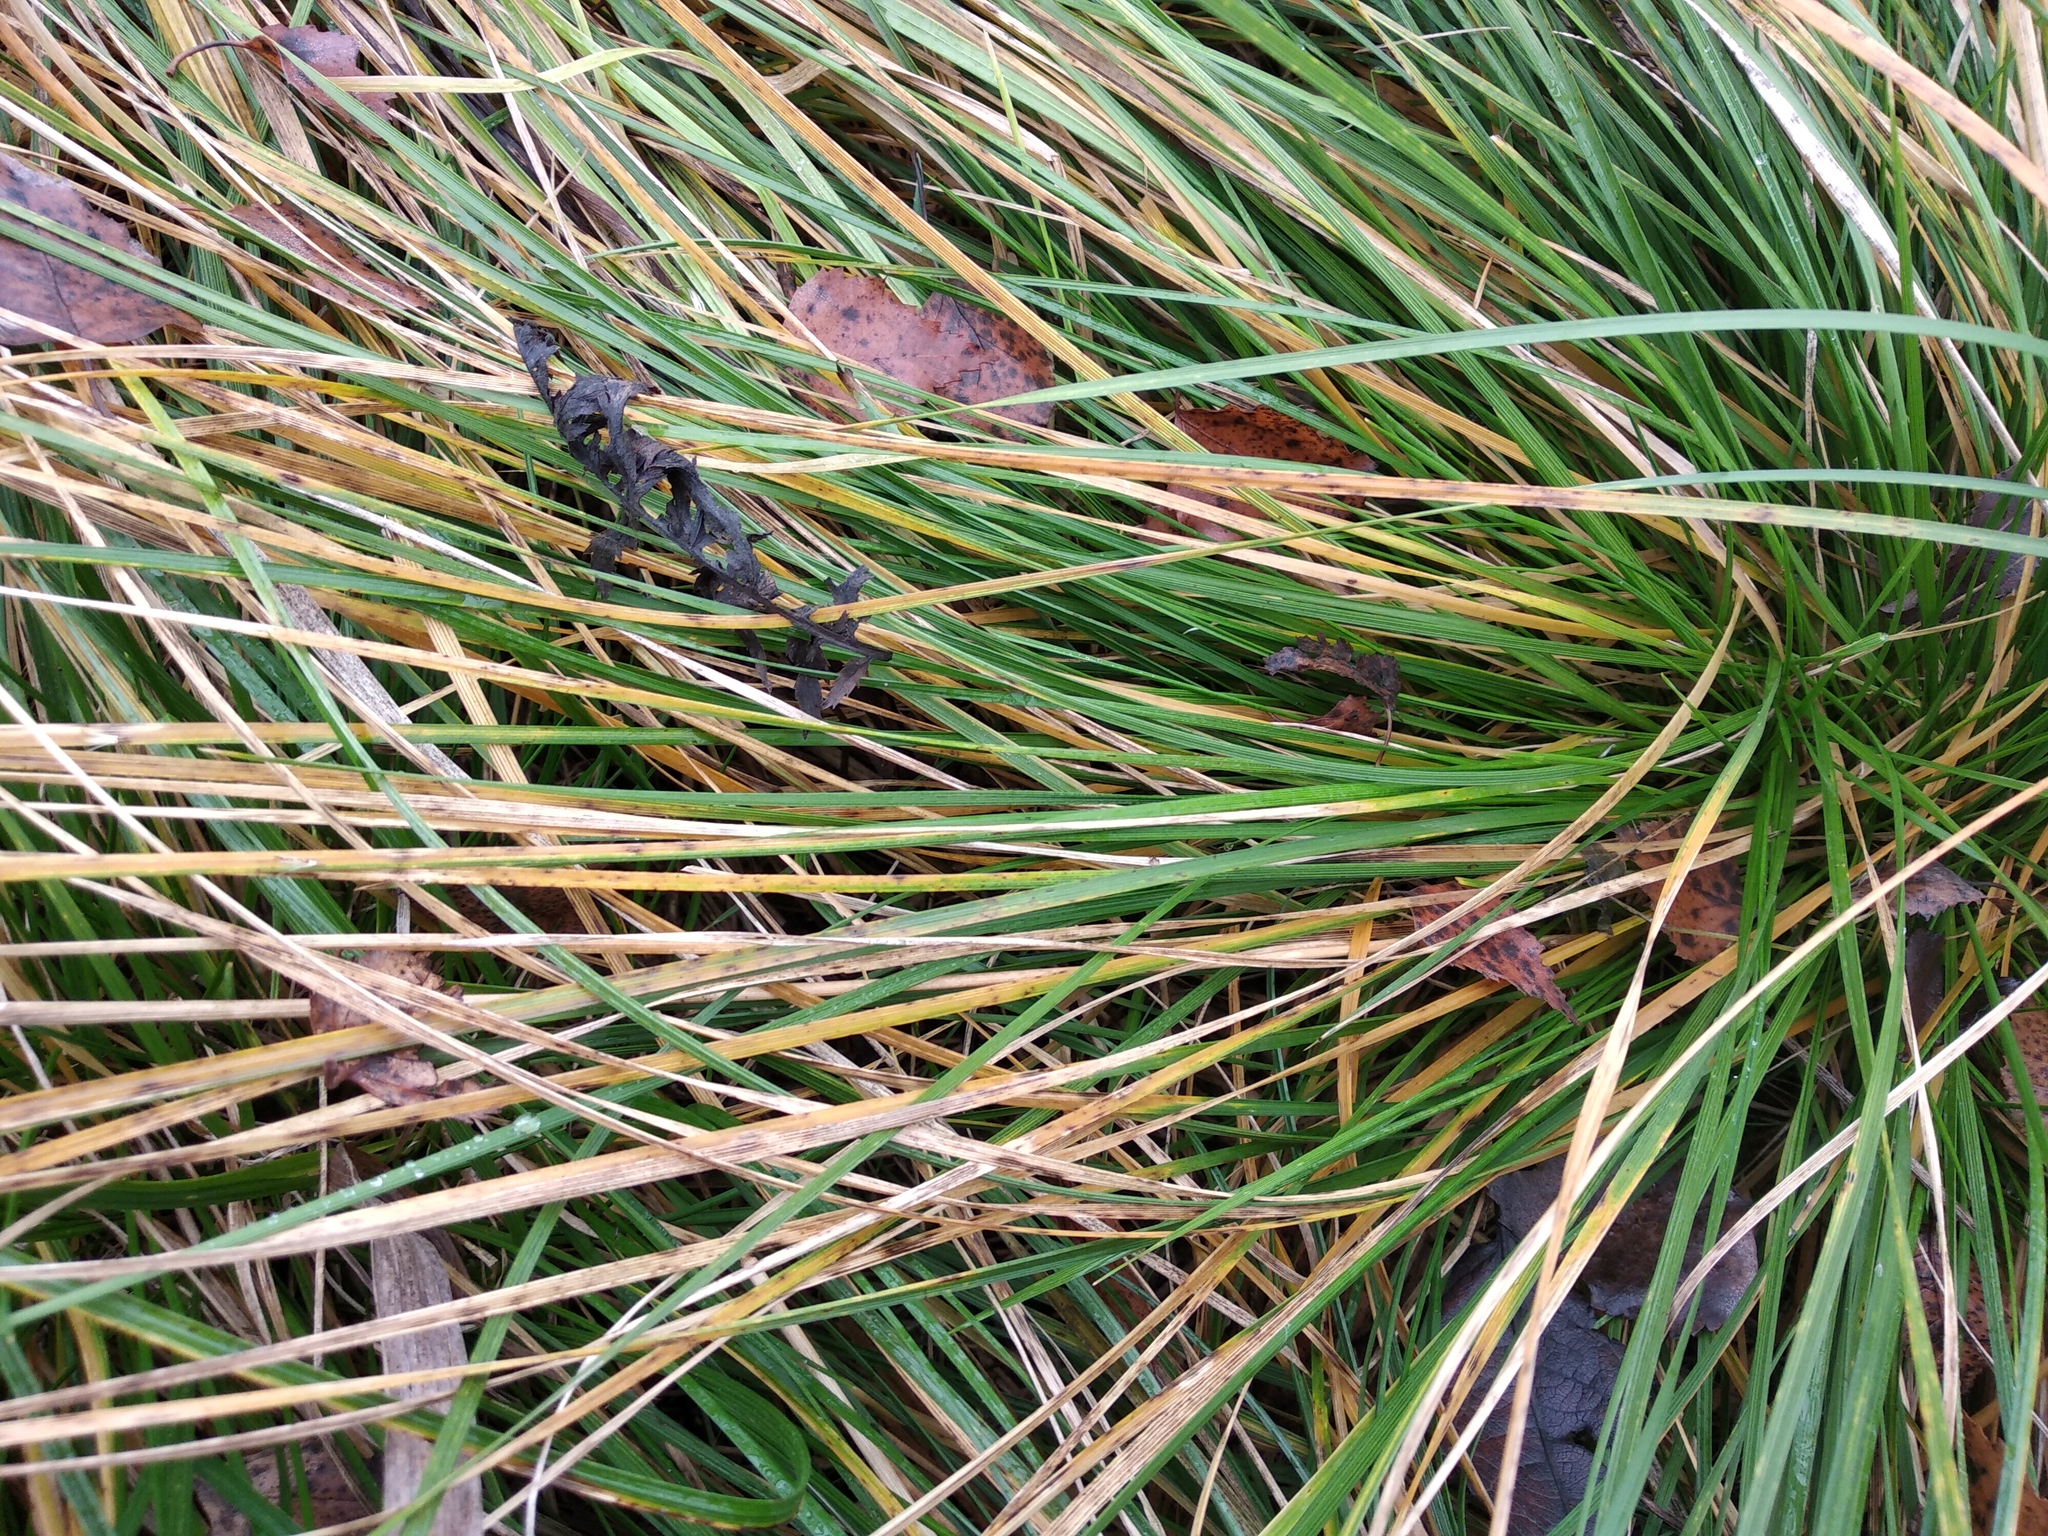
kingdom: Plantae
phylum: Tracheophyta
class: Liliopsida
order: Poales
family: Poaceae
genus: Deschampsia
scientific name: Deschampsia cespitosa
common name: Tufted hair-grass
